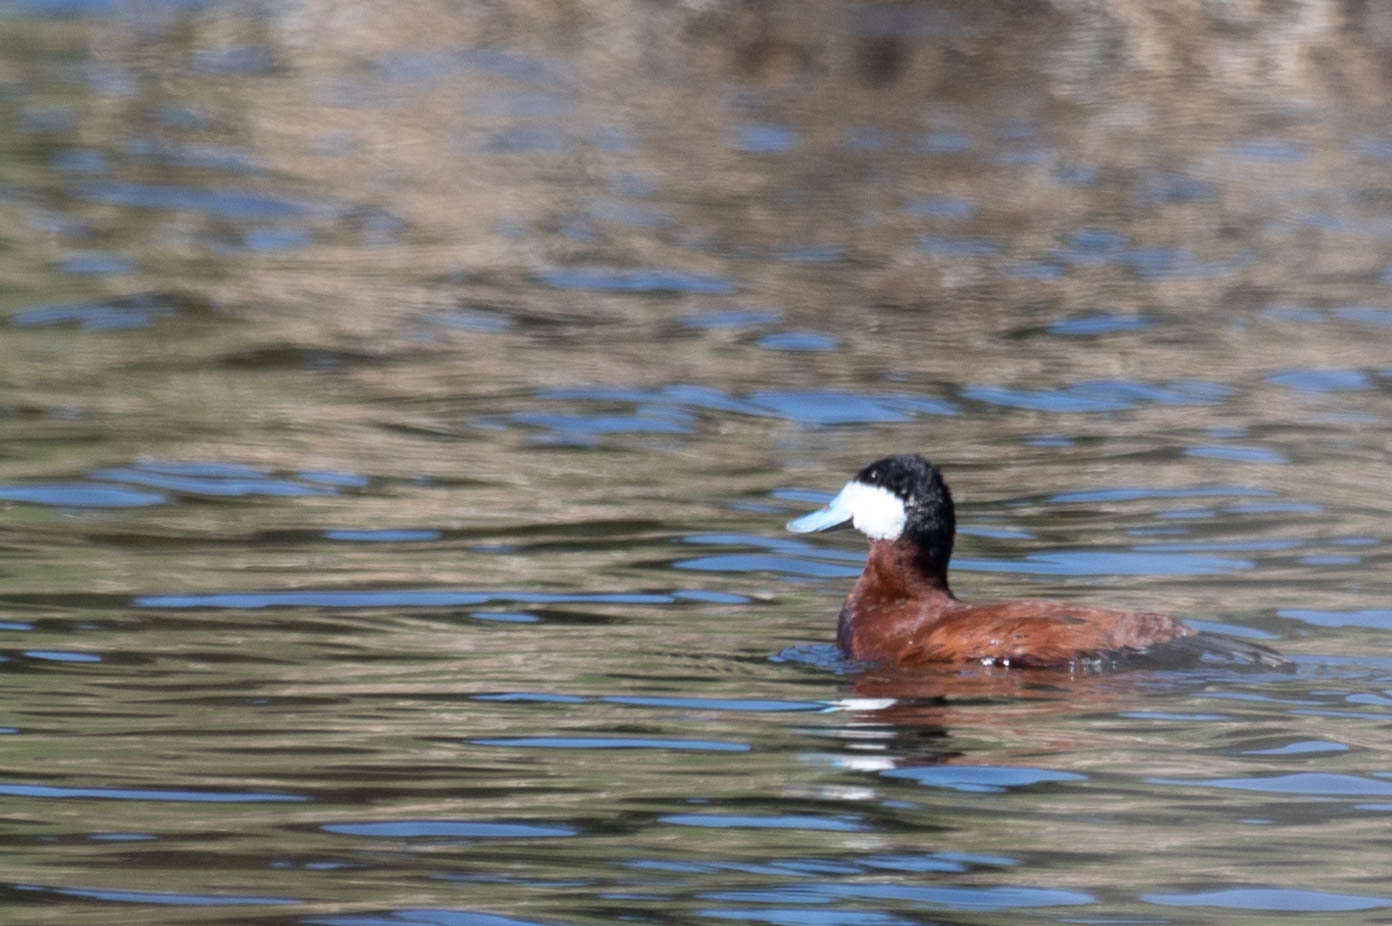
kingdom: Animalia
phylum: Chordata
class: Aves
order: Anseriformes
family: Anatidae
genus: Oxyura
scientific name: Oxyura jamaicensis
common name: Ruddy duck
